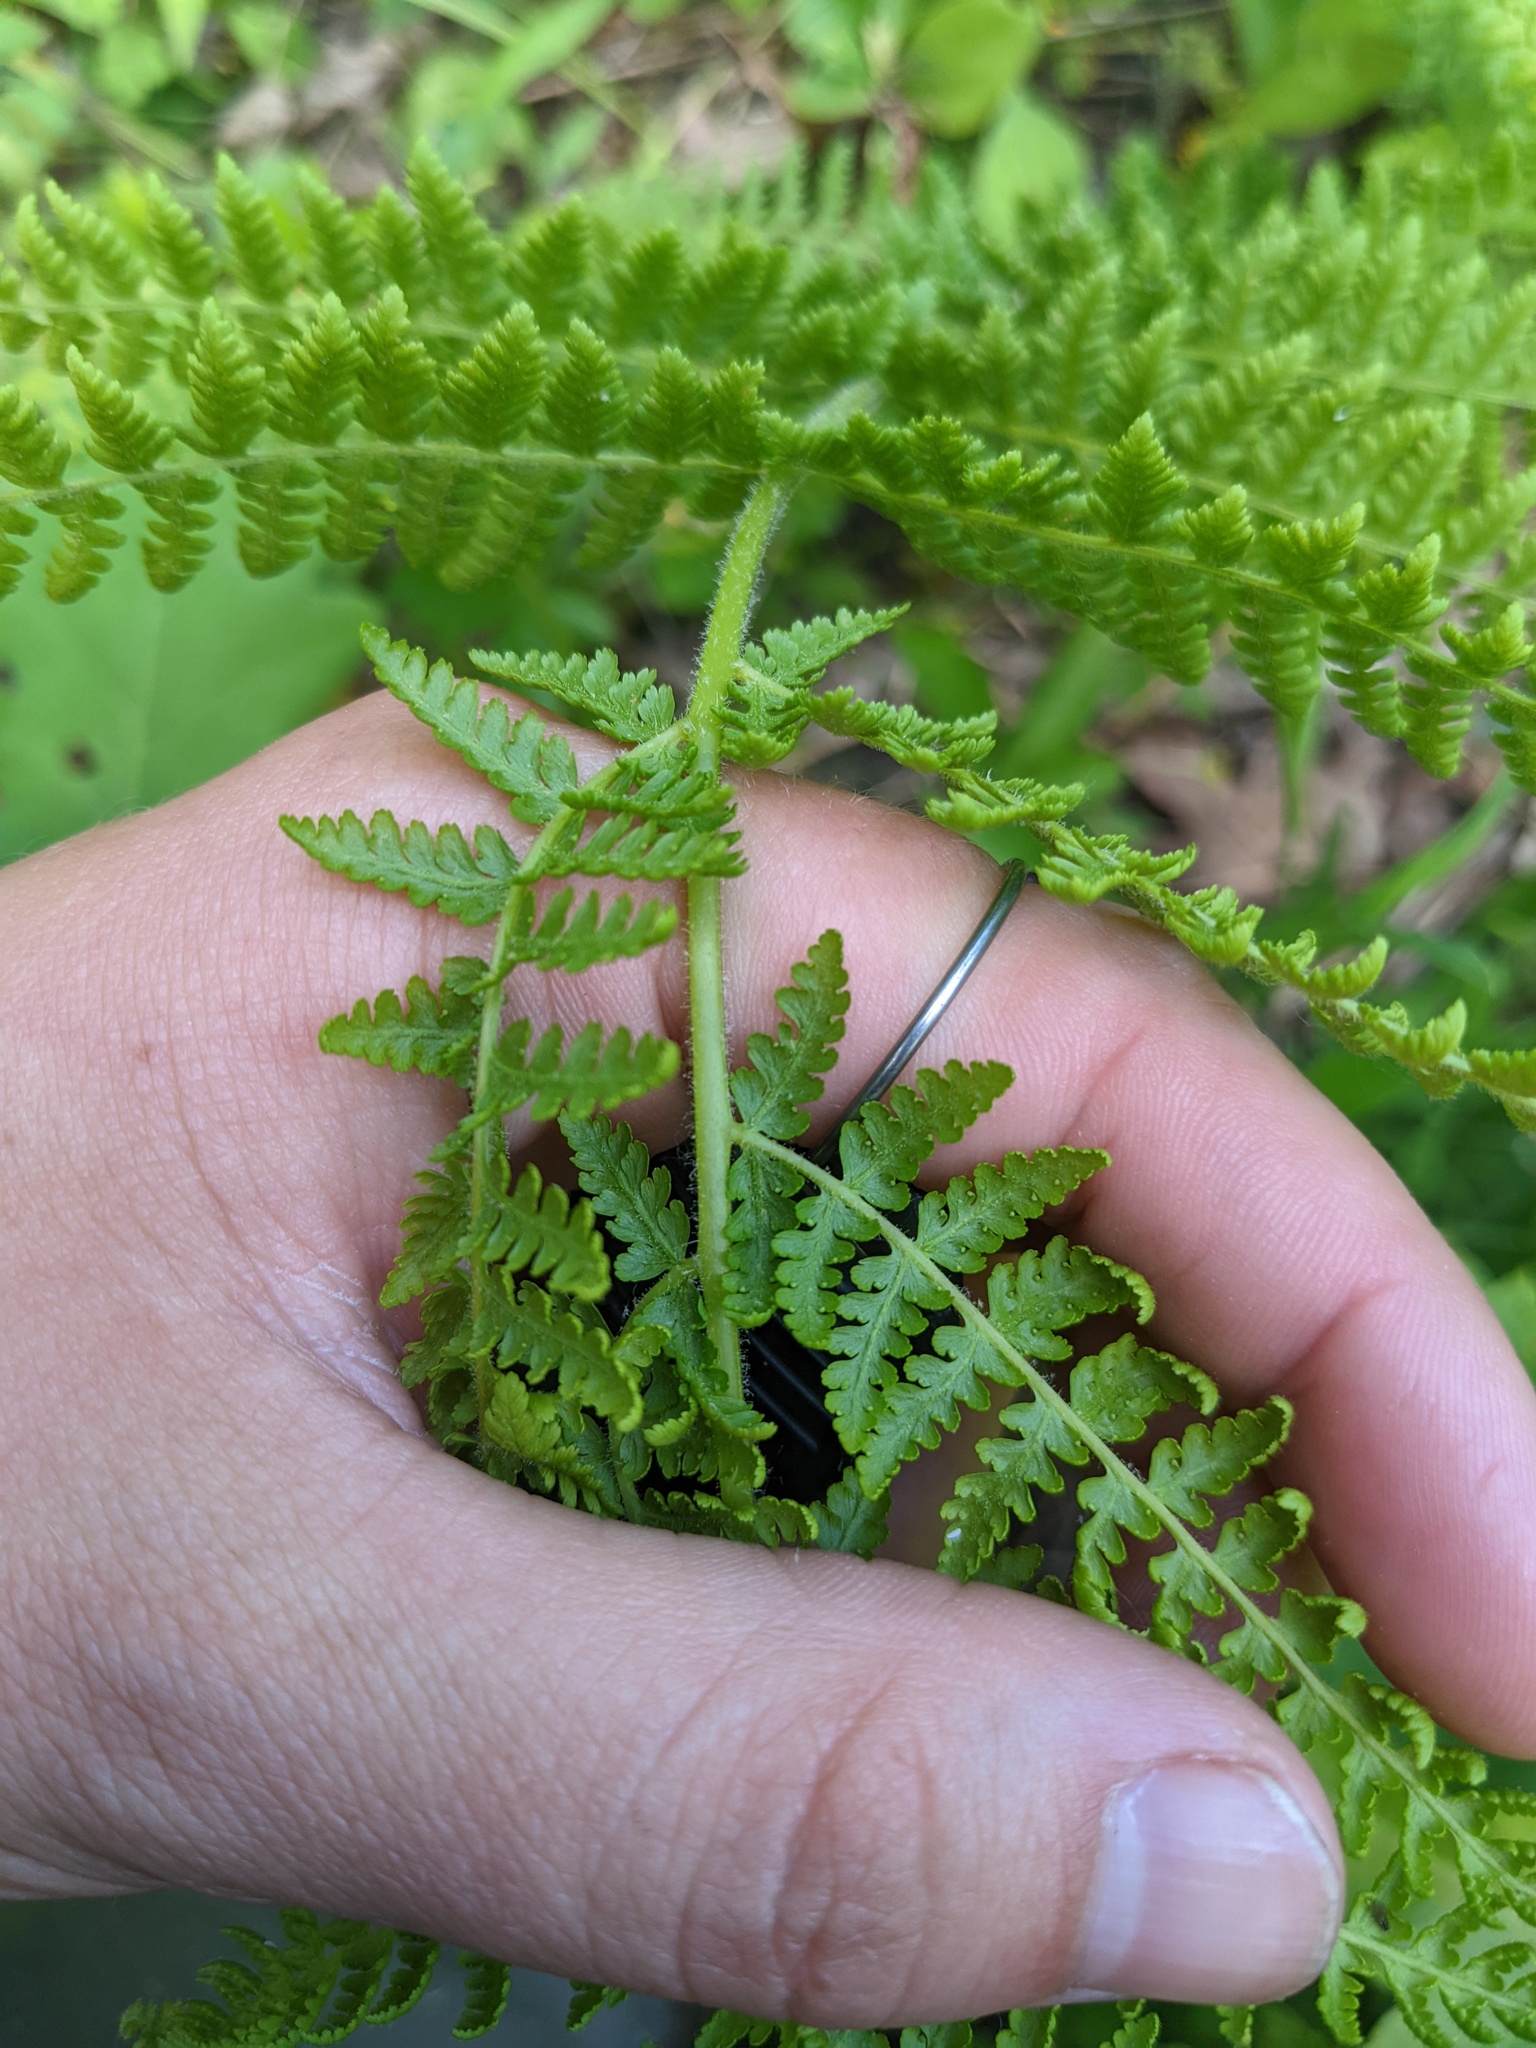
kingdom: Plantae
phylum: Tracheophyta
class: Polypodiopsida
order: Polypodiales
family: Dennstaedtiaceae
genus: Sitobolium
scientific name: Sitobolium punctilobum
